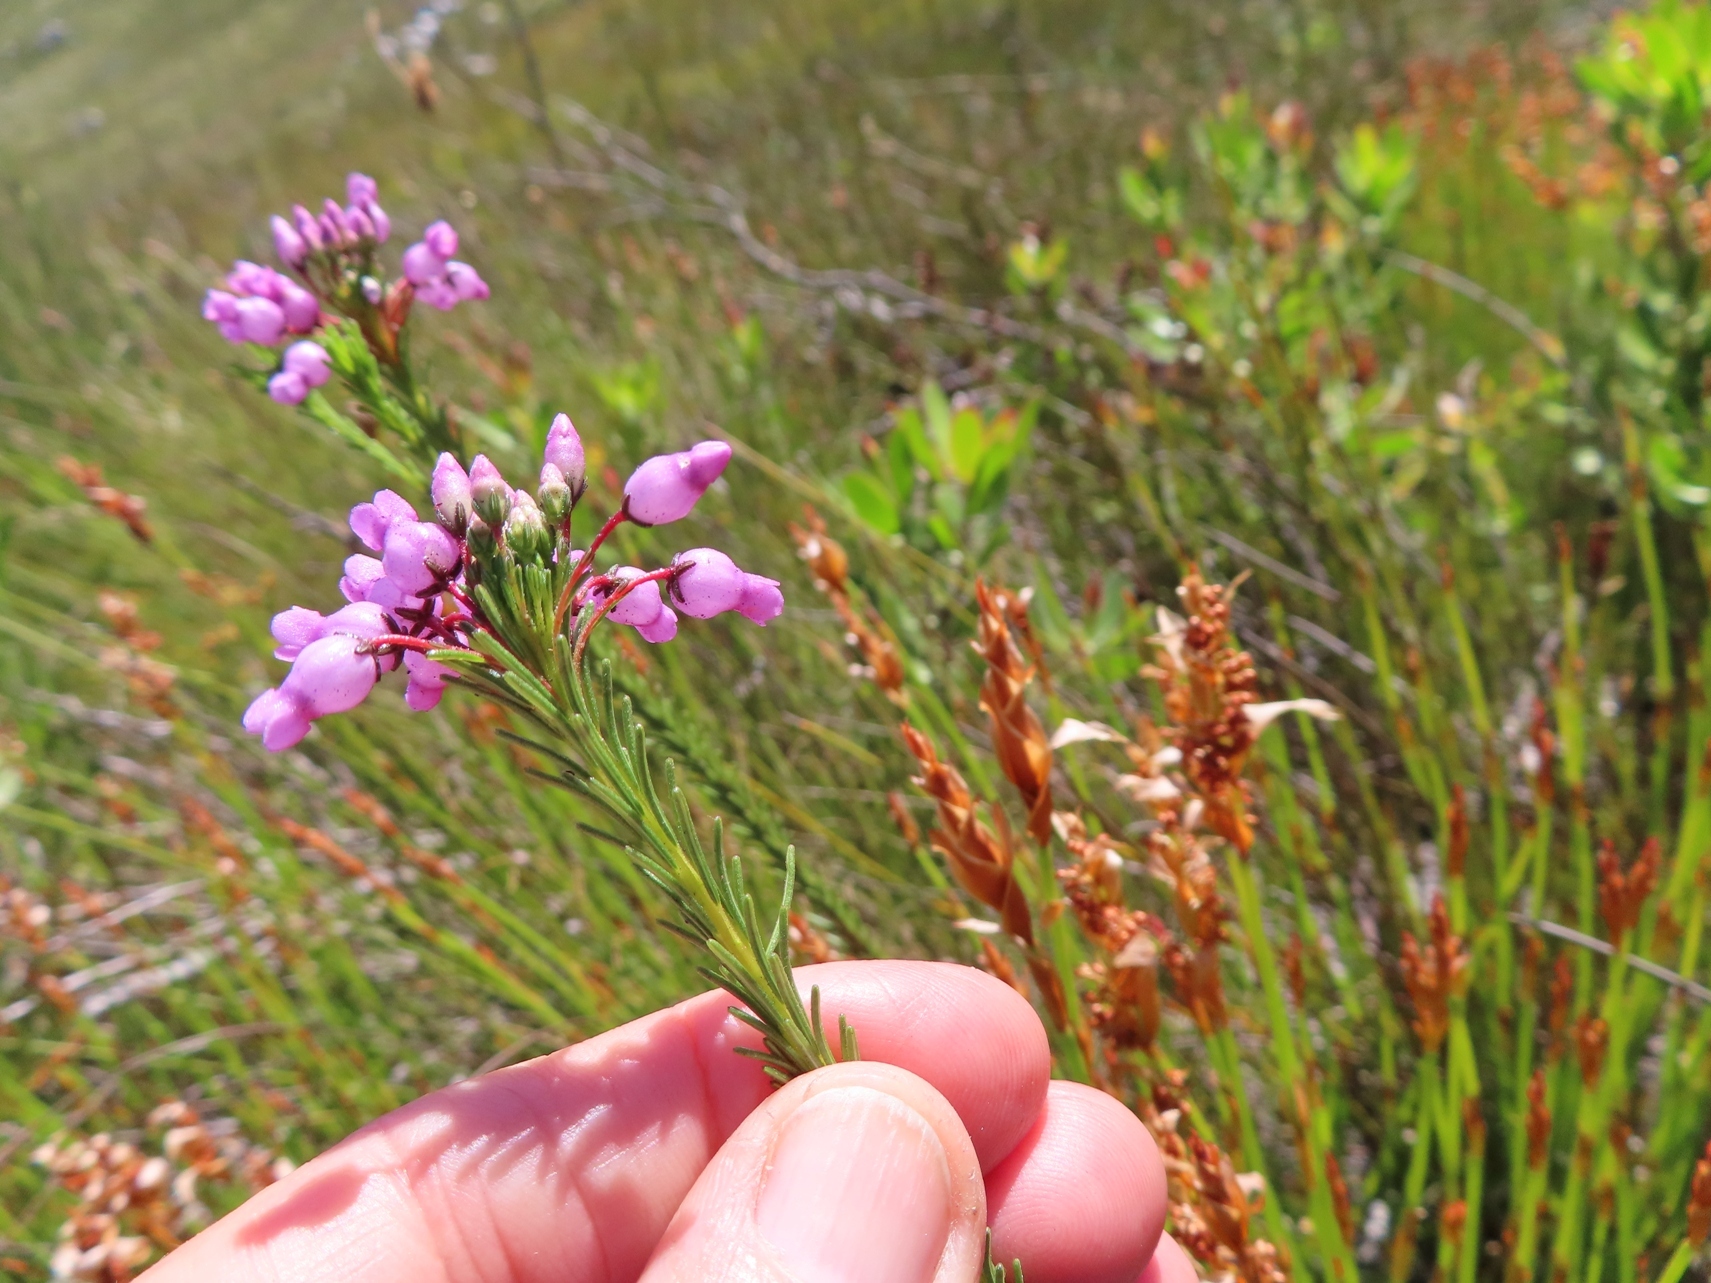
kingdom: Plantae
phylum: Tracheophyta
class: Magnoliopsida
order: Ericales
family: Ericaceae
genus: Erica
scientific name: Erica obliqua
